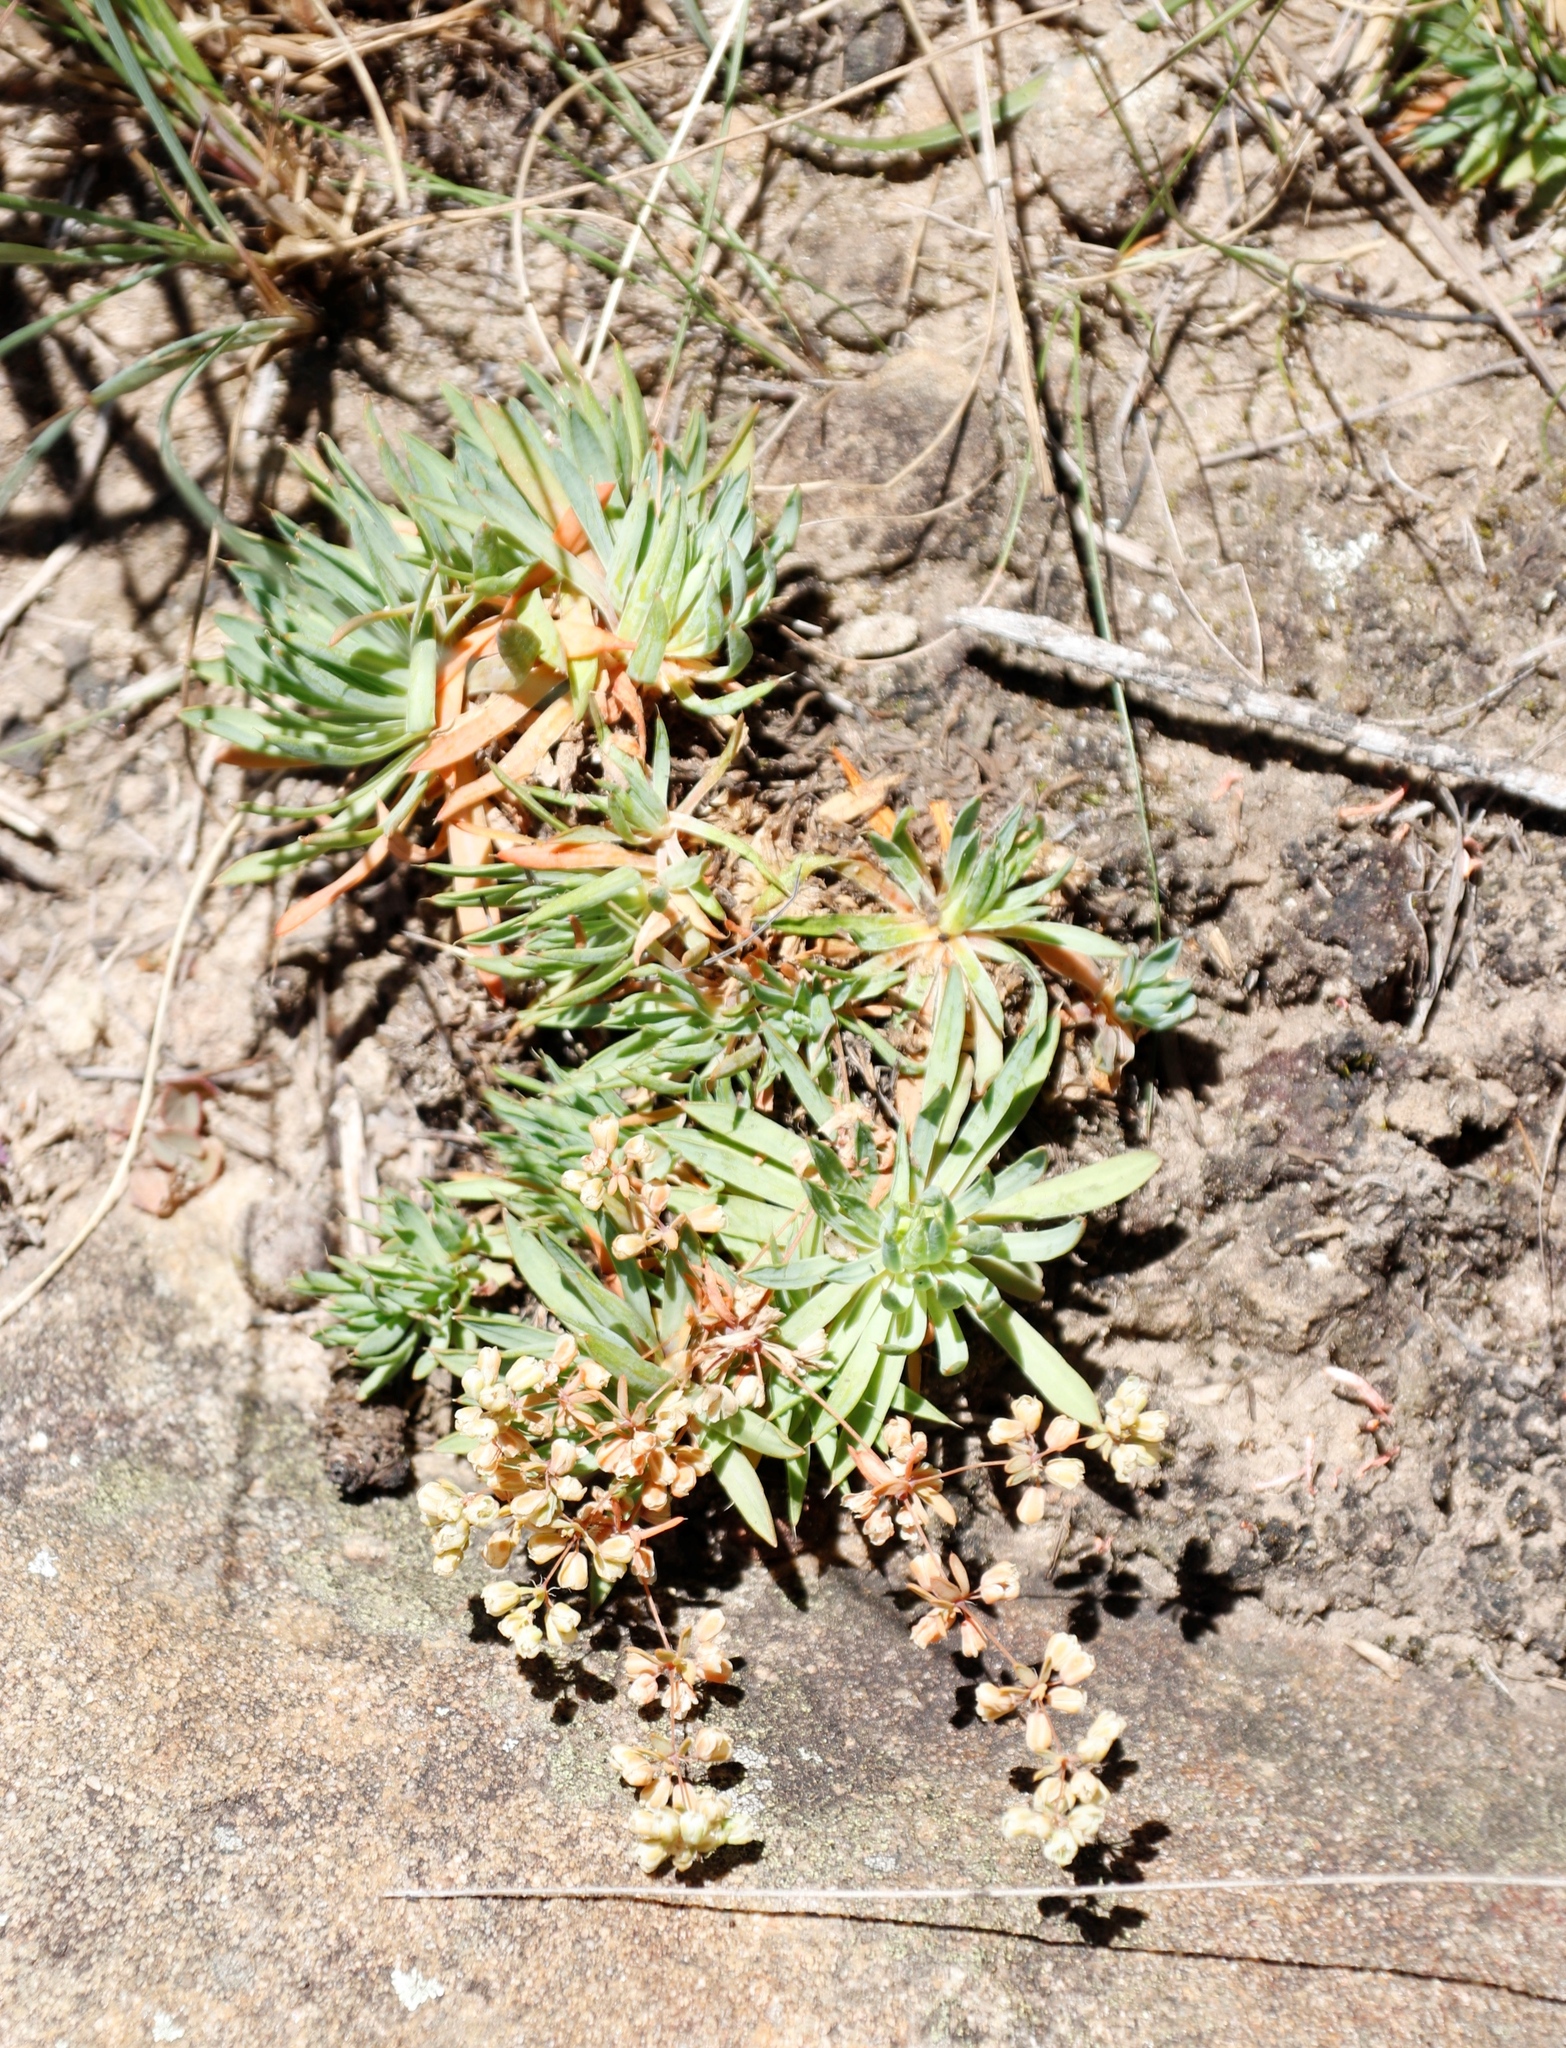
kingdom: Plantae
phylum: Tracheophyta
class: Magnoliopsida
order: Caryophyllales
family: Molluginaceae
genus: Psammotropha
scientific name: Psammotropha mucronata
